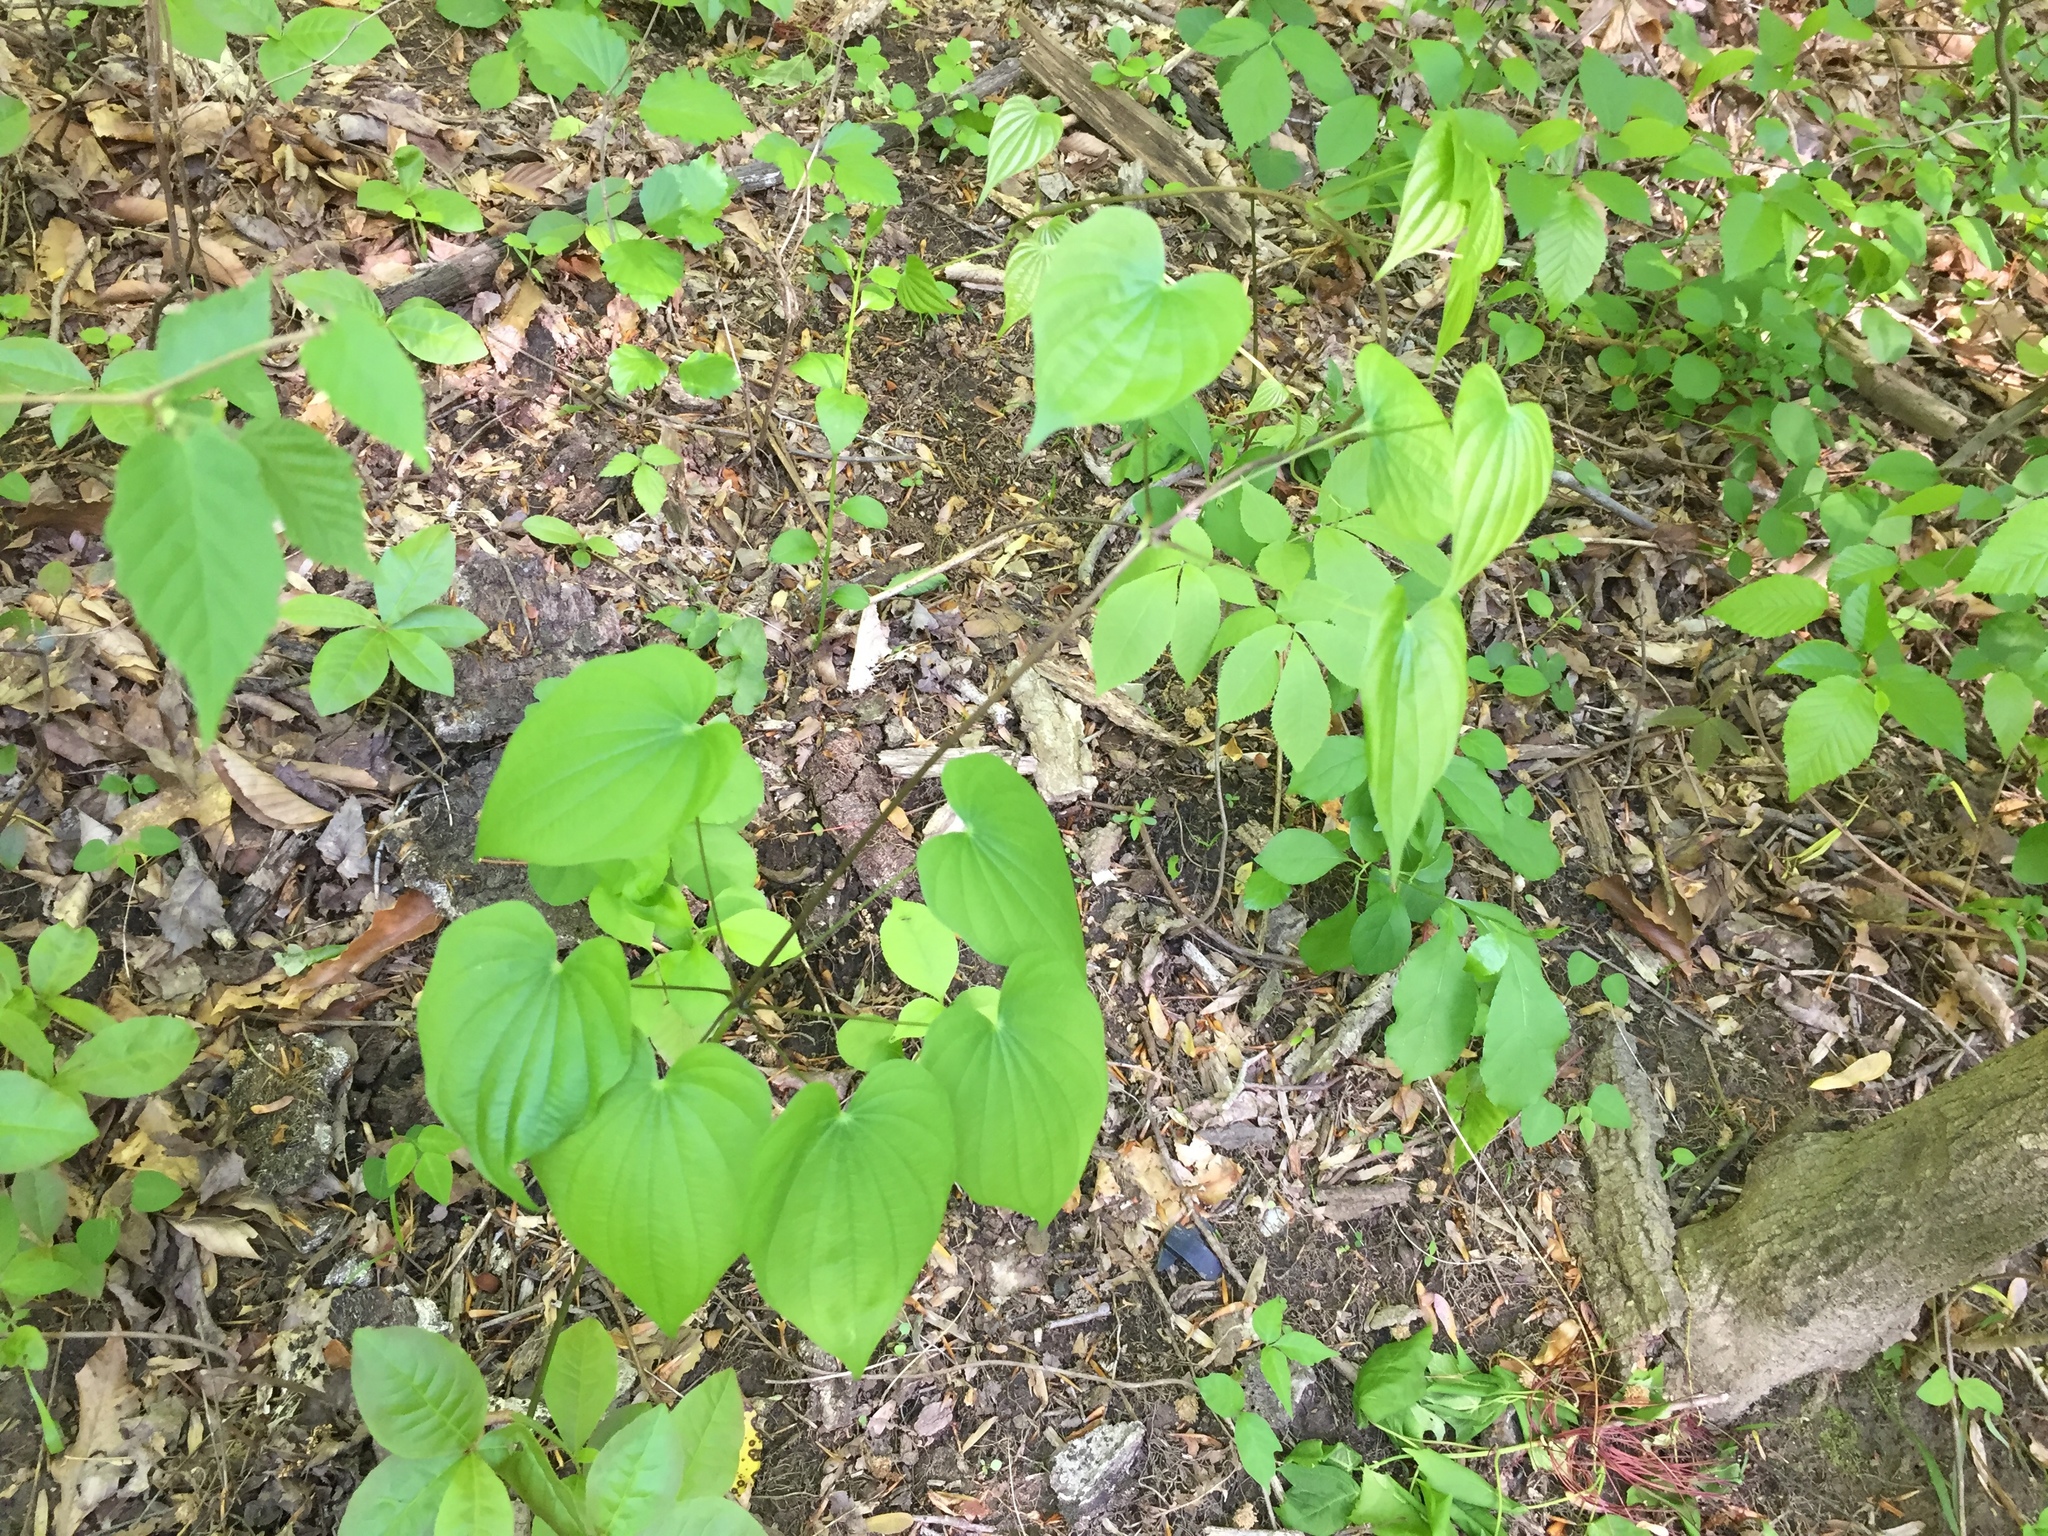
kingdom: Plantae
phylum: Tracheophyta
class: Liliopsida
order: Dioscoreales
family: Dioscoreaceae
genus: Dioscorea
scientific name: Dioscorea villosa
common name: Wild yam
